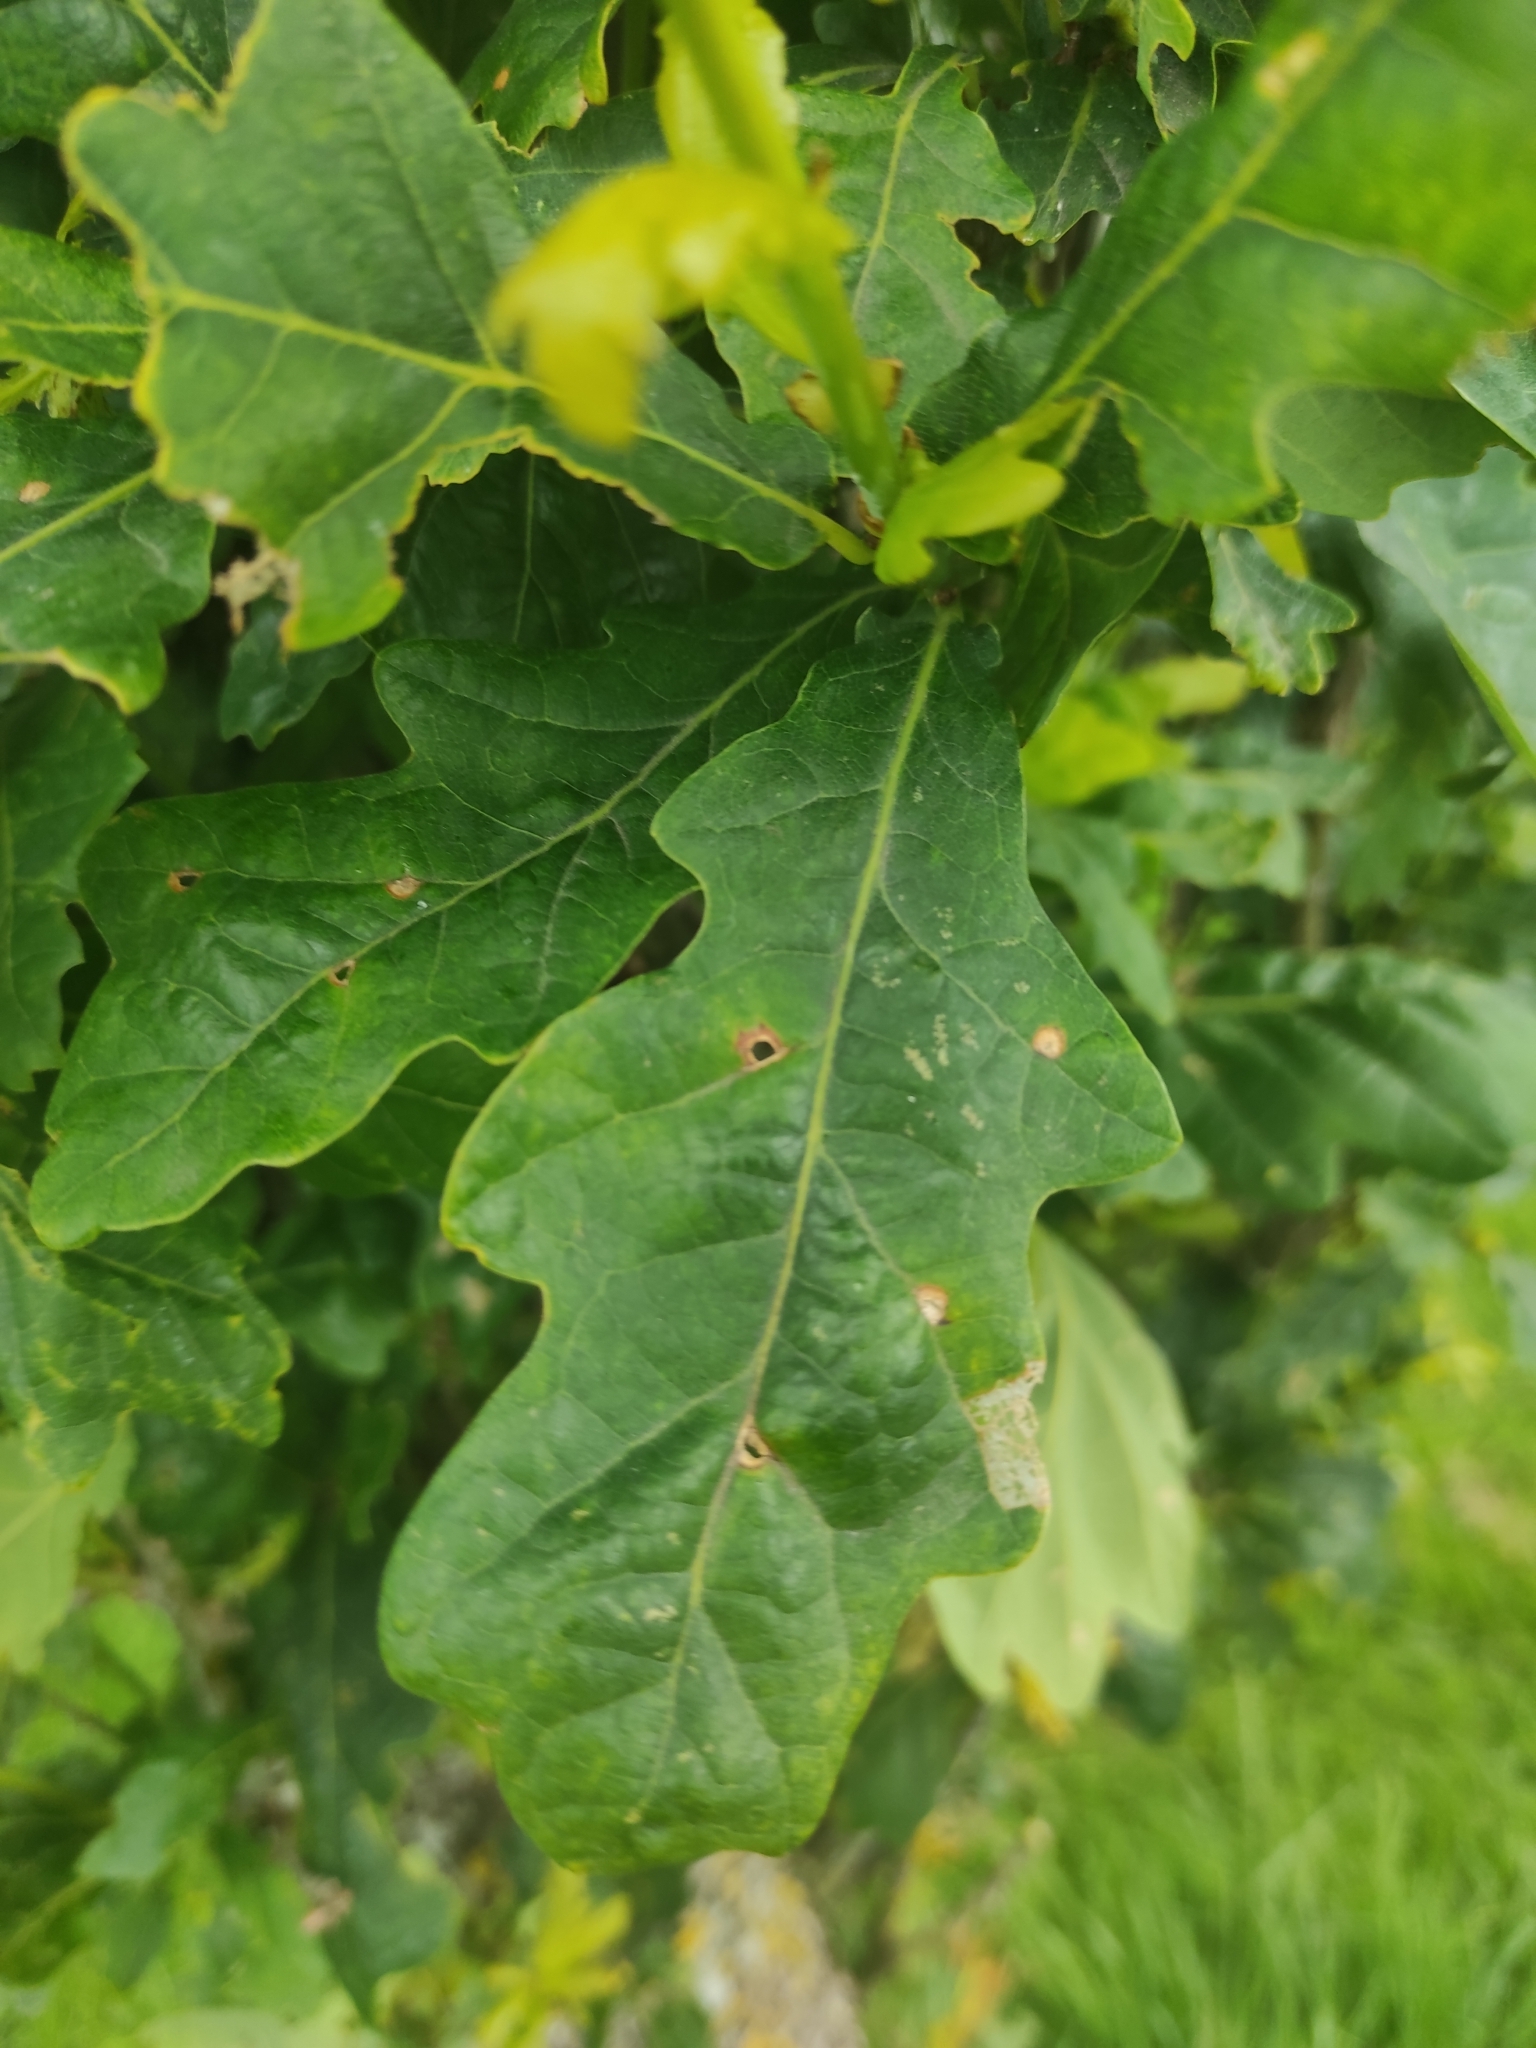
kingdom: Plantae
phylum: Tracheophyta
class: Magnoliopsida
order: Fagales
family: Fagaceae
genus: Quercus
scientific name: Quercus robur
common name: Pedunculate oak
